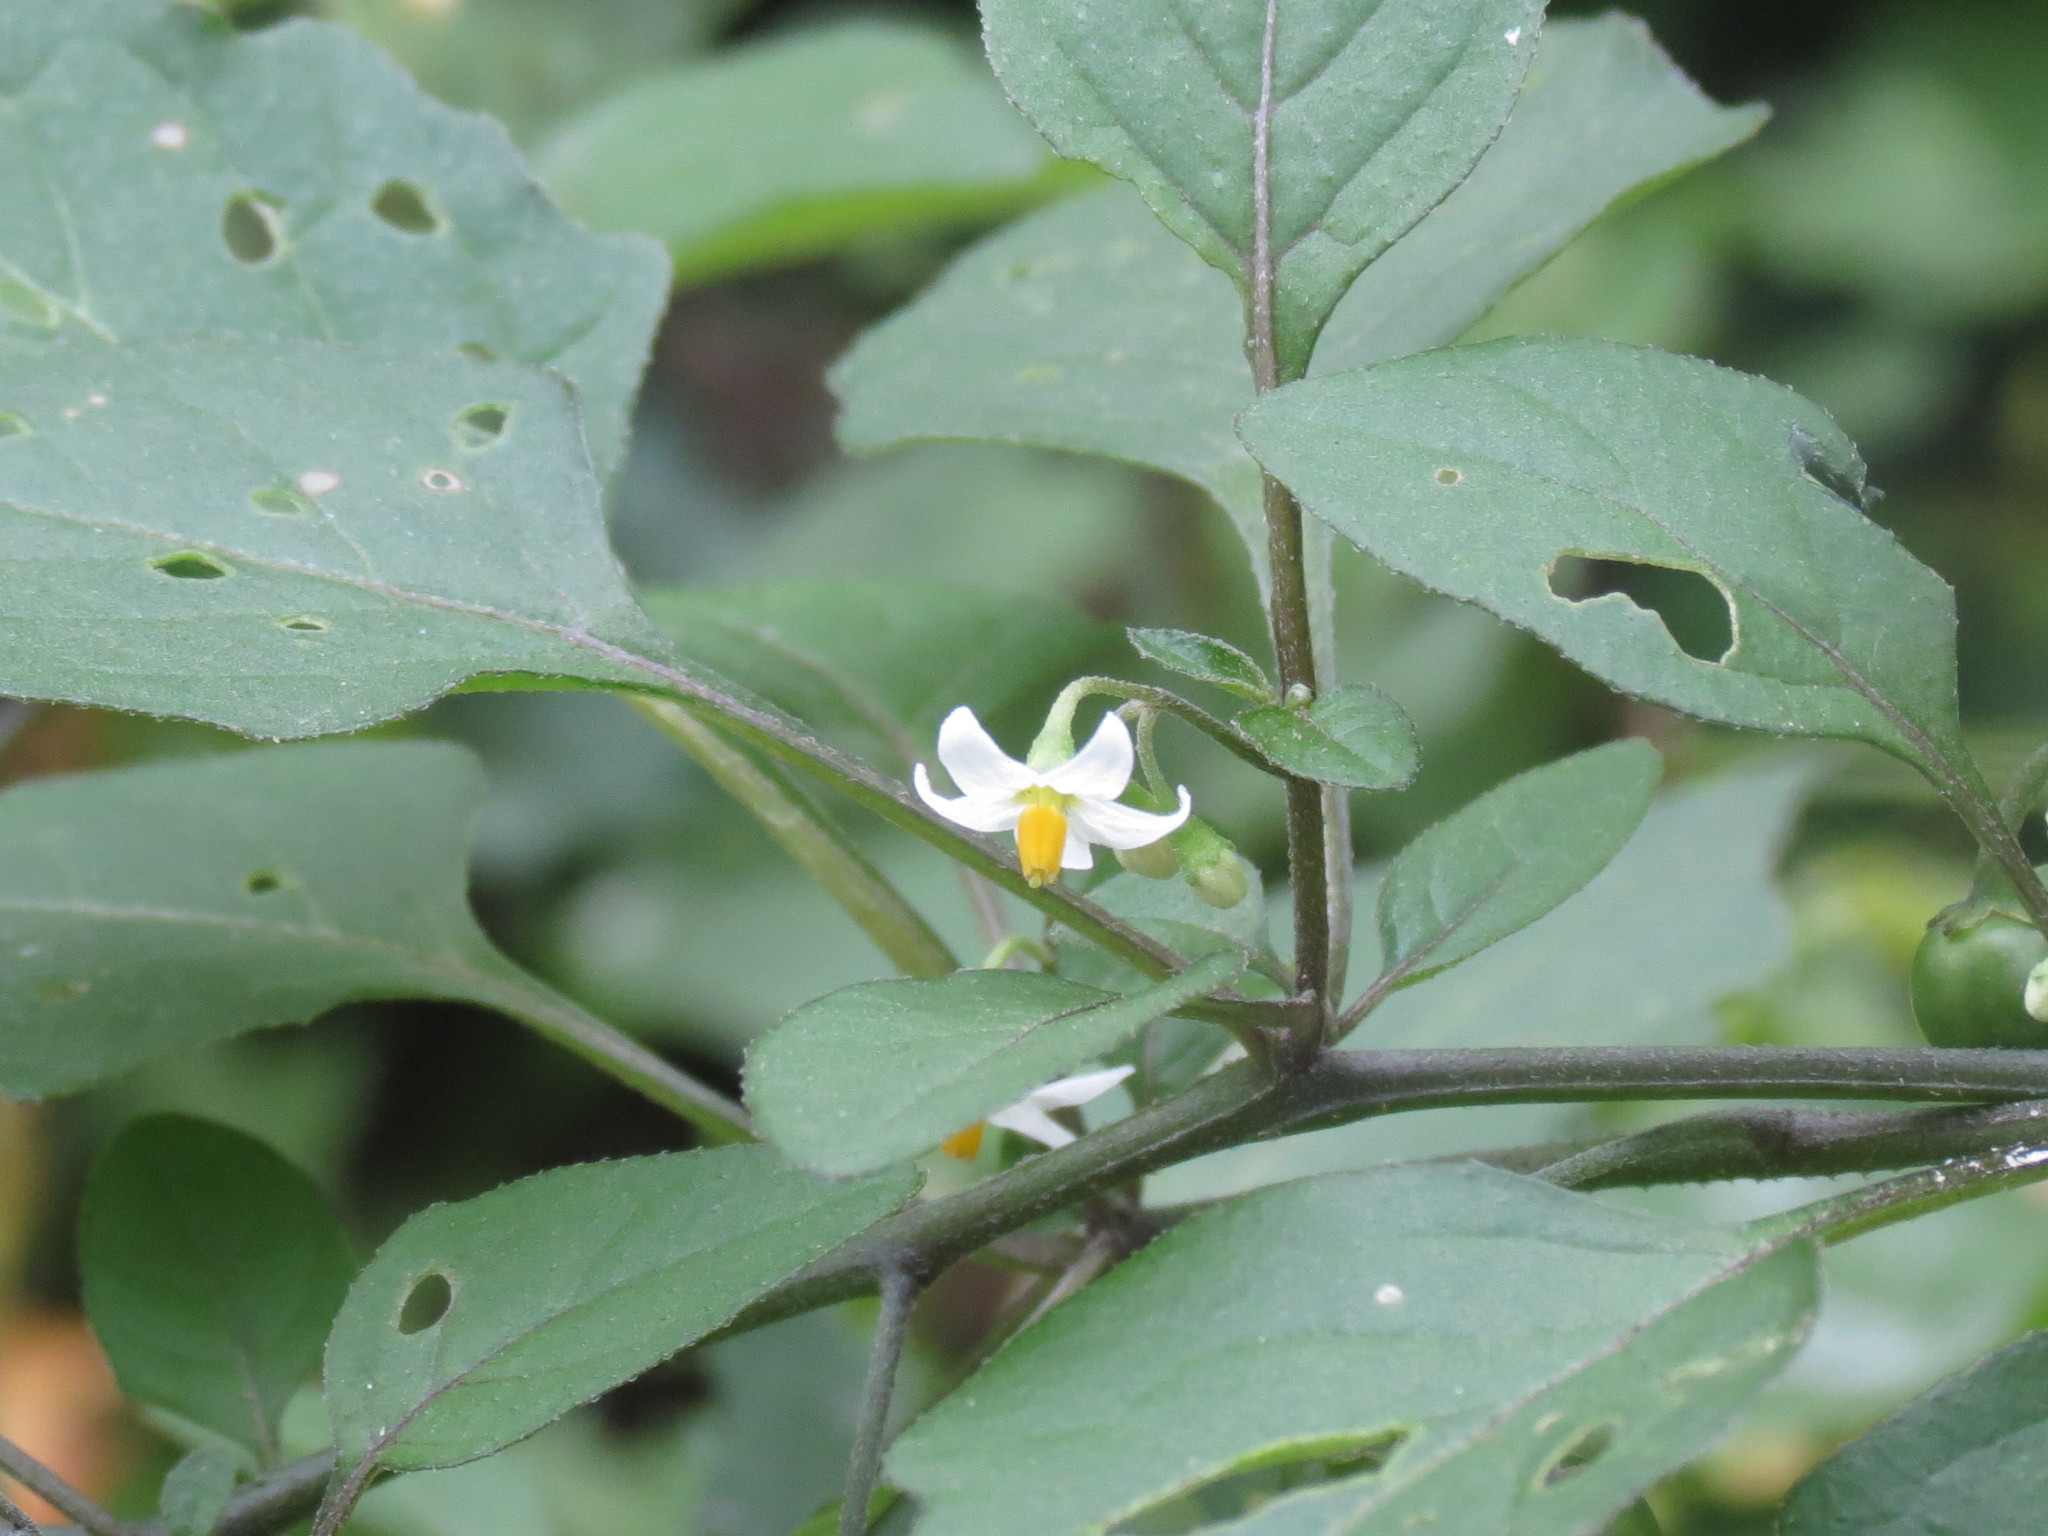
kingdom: Plantae
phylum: Tracheophyta
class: Magnoliopsida
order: Solanales
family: Solanaceae
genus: Solanum
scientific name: Solanum emulans
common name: Eastern black nightshade
